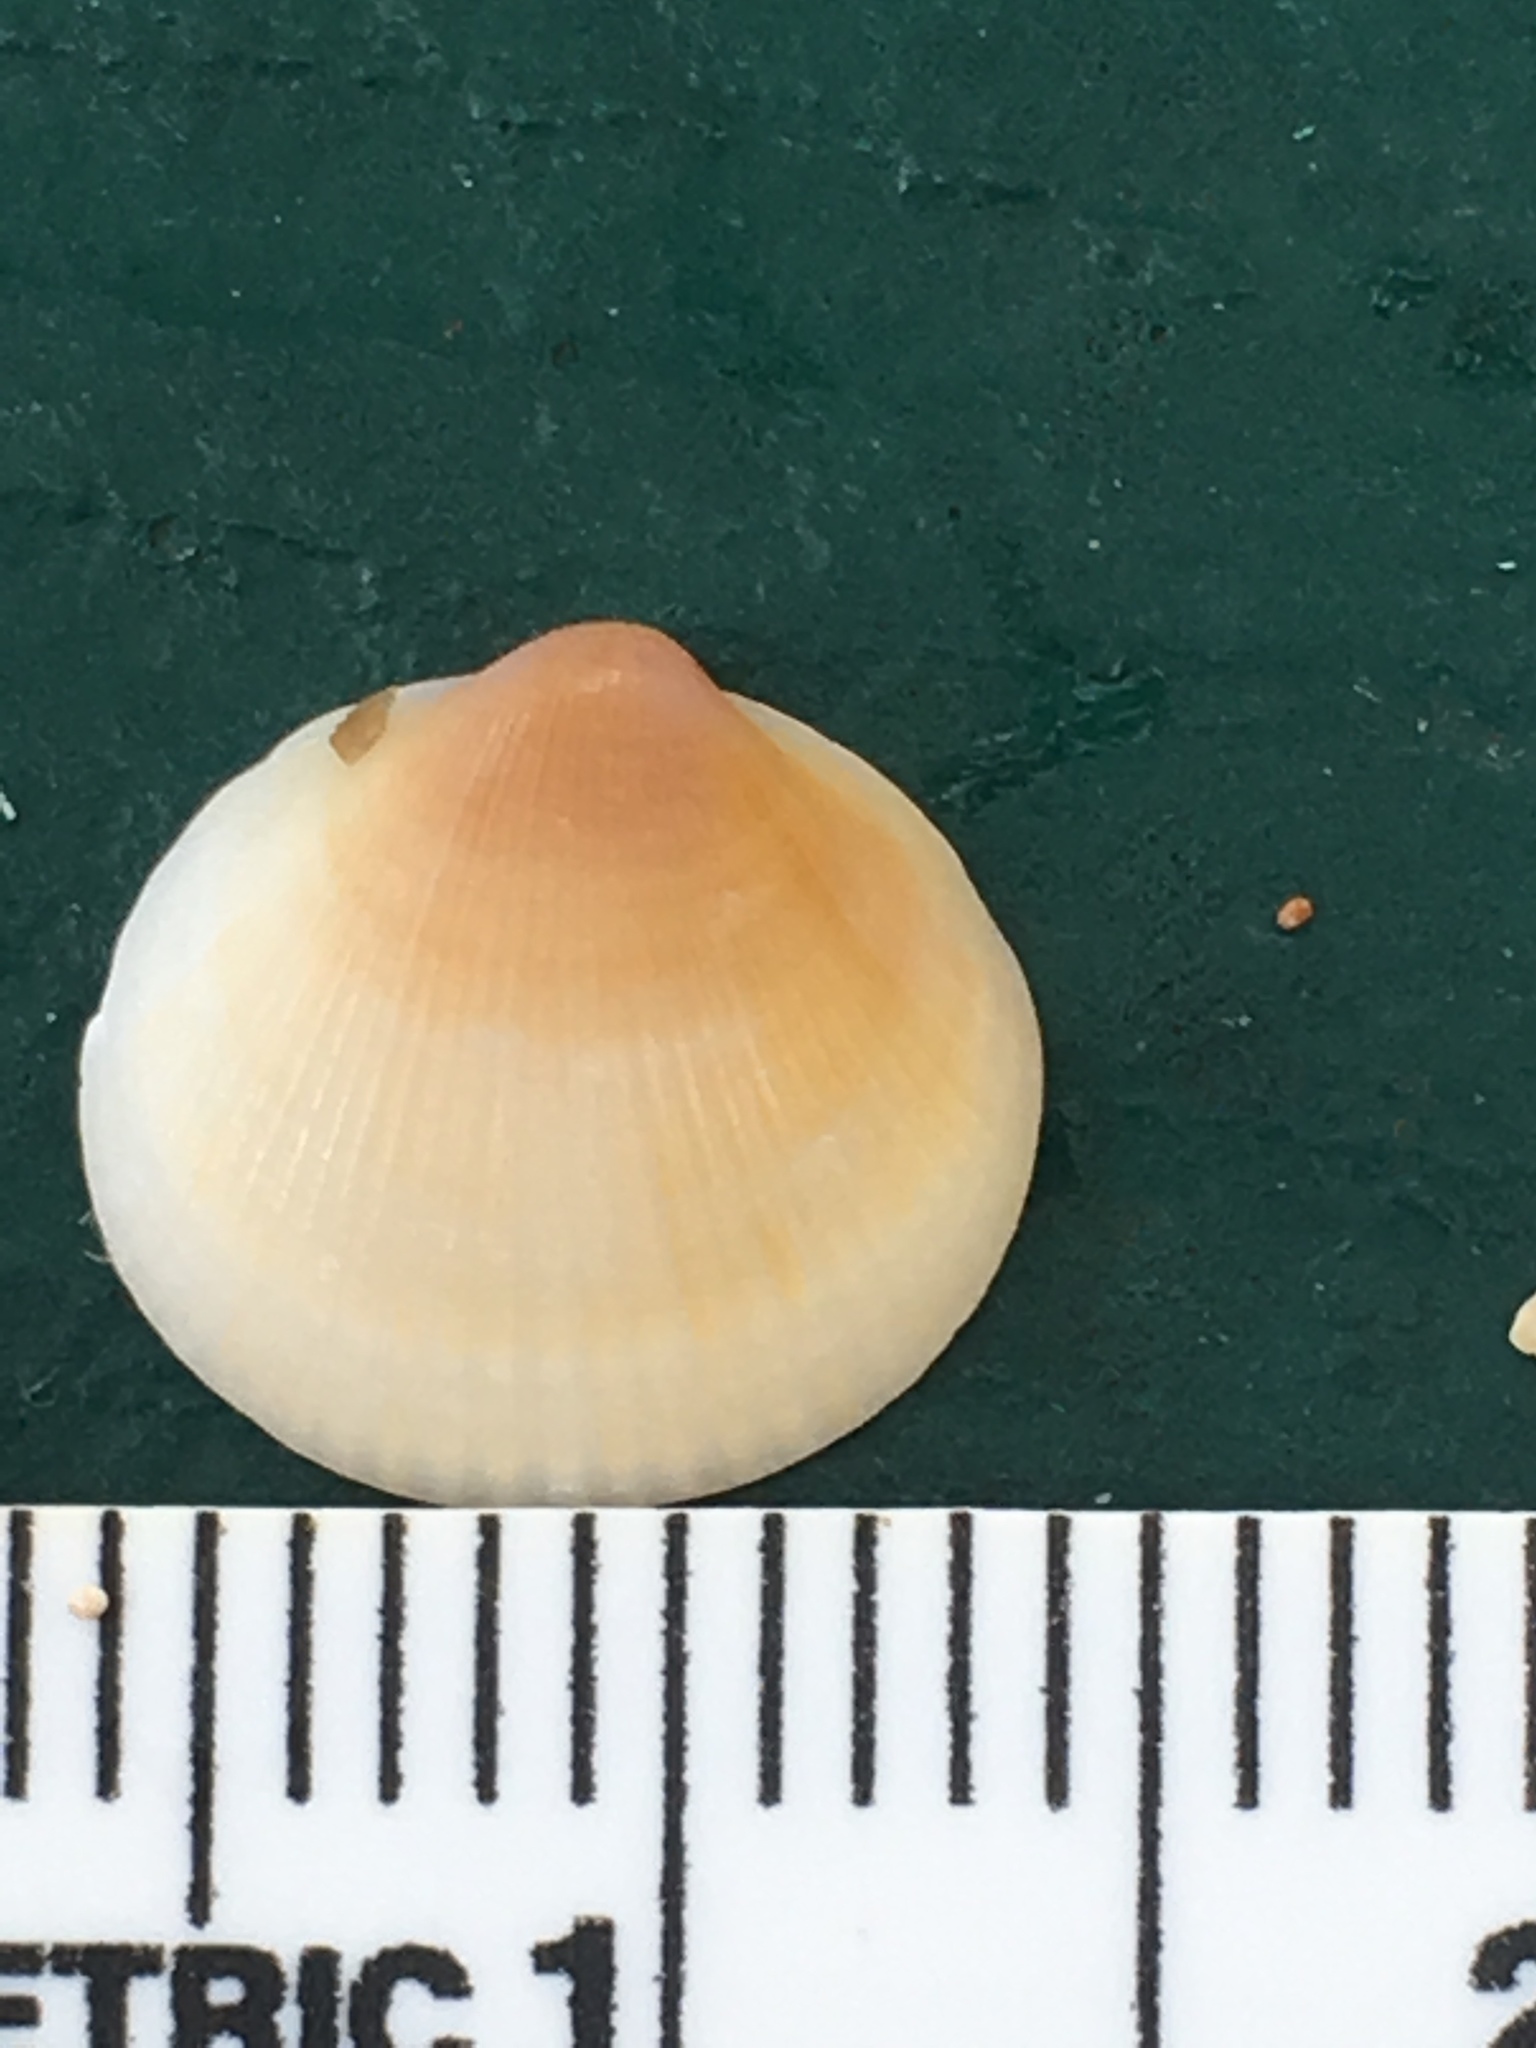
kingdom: Animalia
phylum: Mollusca
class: Bivalvia
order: Arcida
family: Glycymerididae
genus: Glycymeris
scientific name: Glycymeris spectralis
